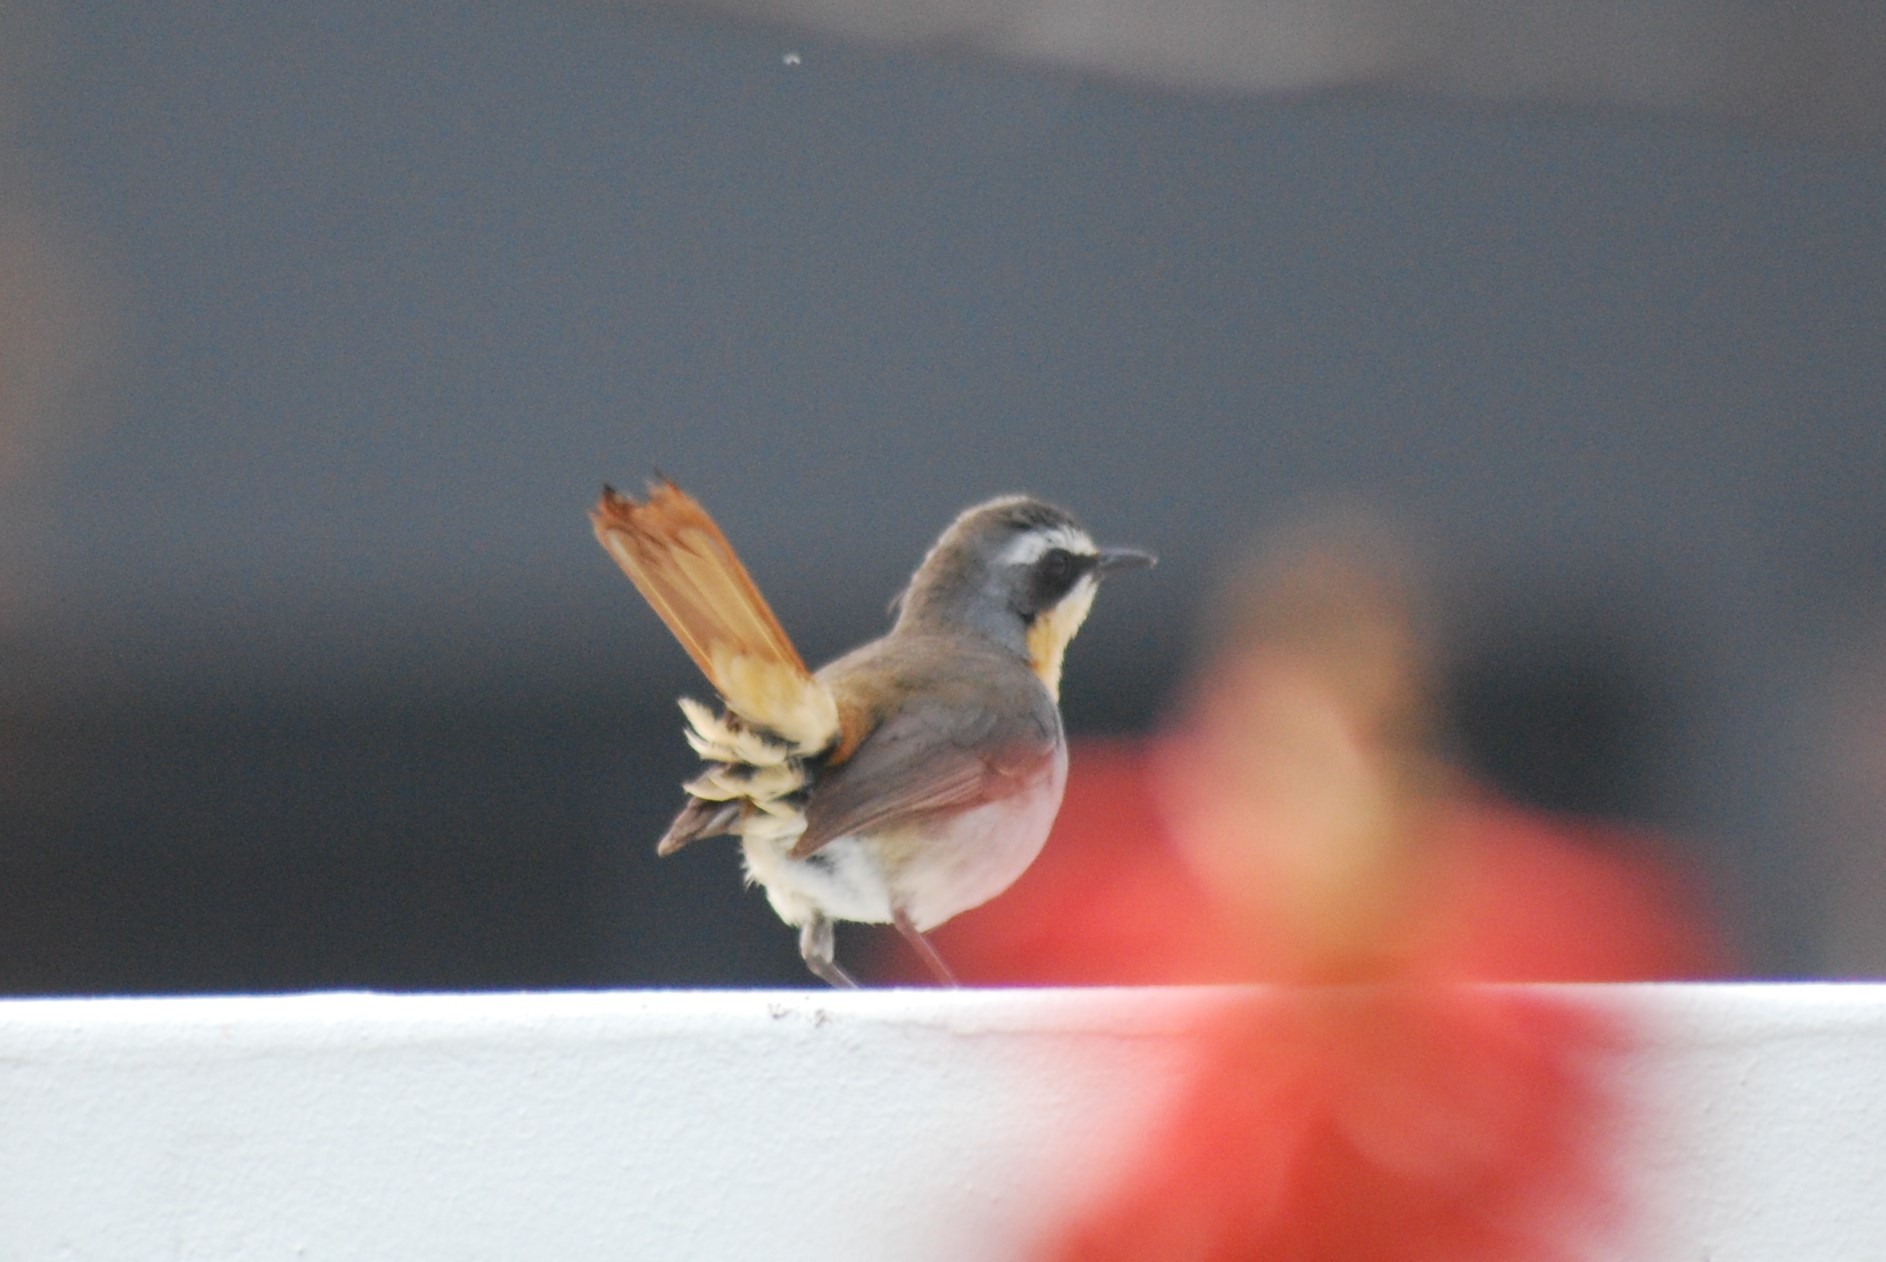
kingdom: Animalia
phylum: Chordata
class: Aves
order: Passeriformes
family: Muscicapidae
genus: Cossypha
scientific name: Cossypha caffra
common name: Cape robin-chat
